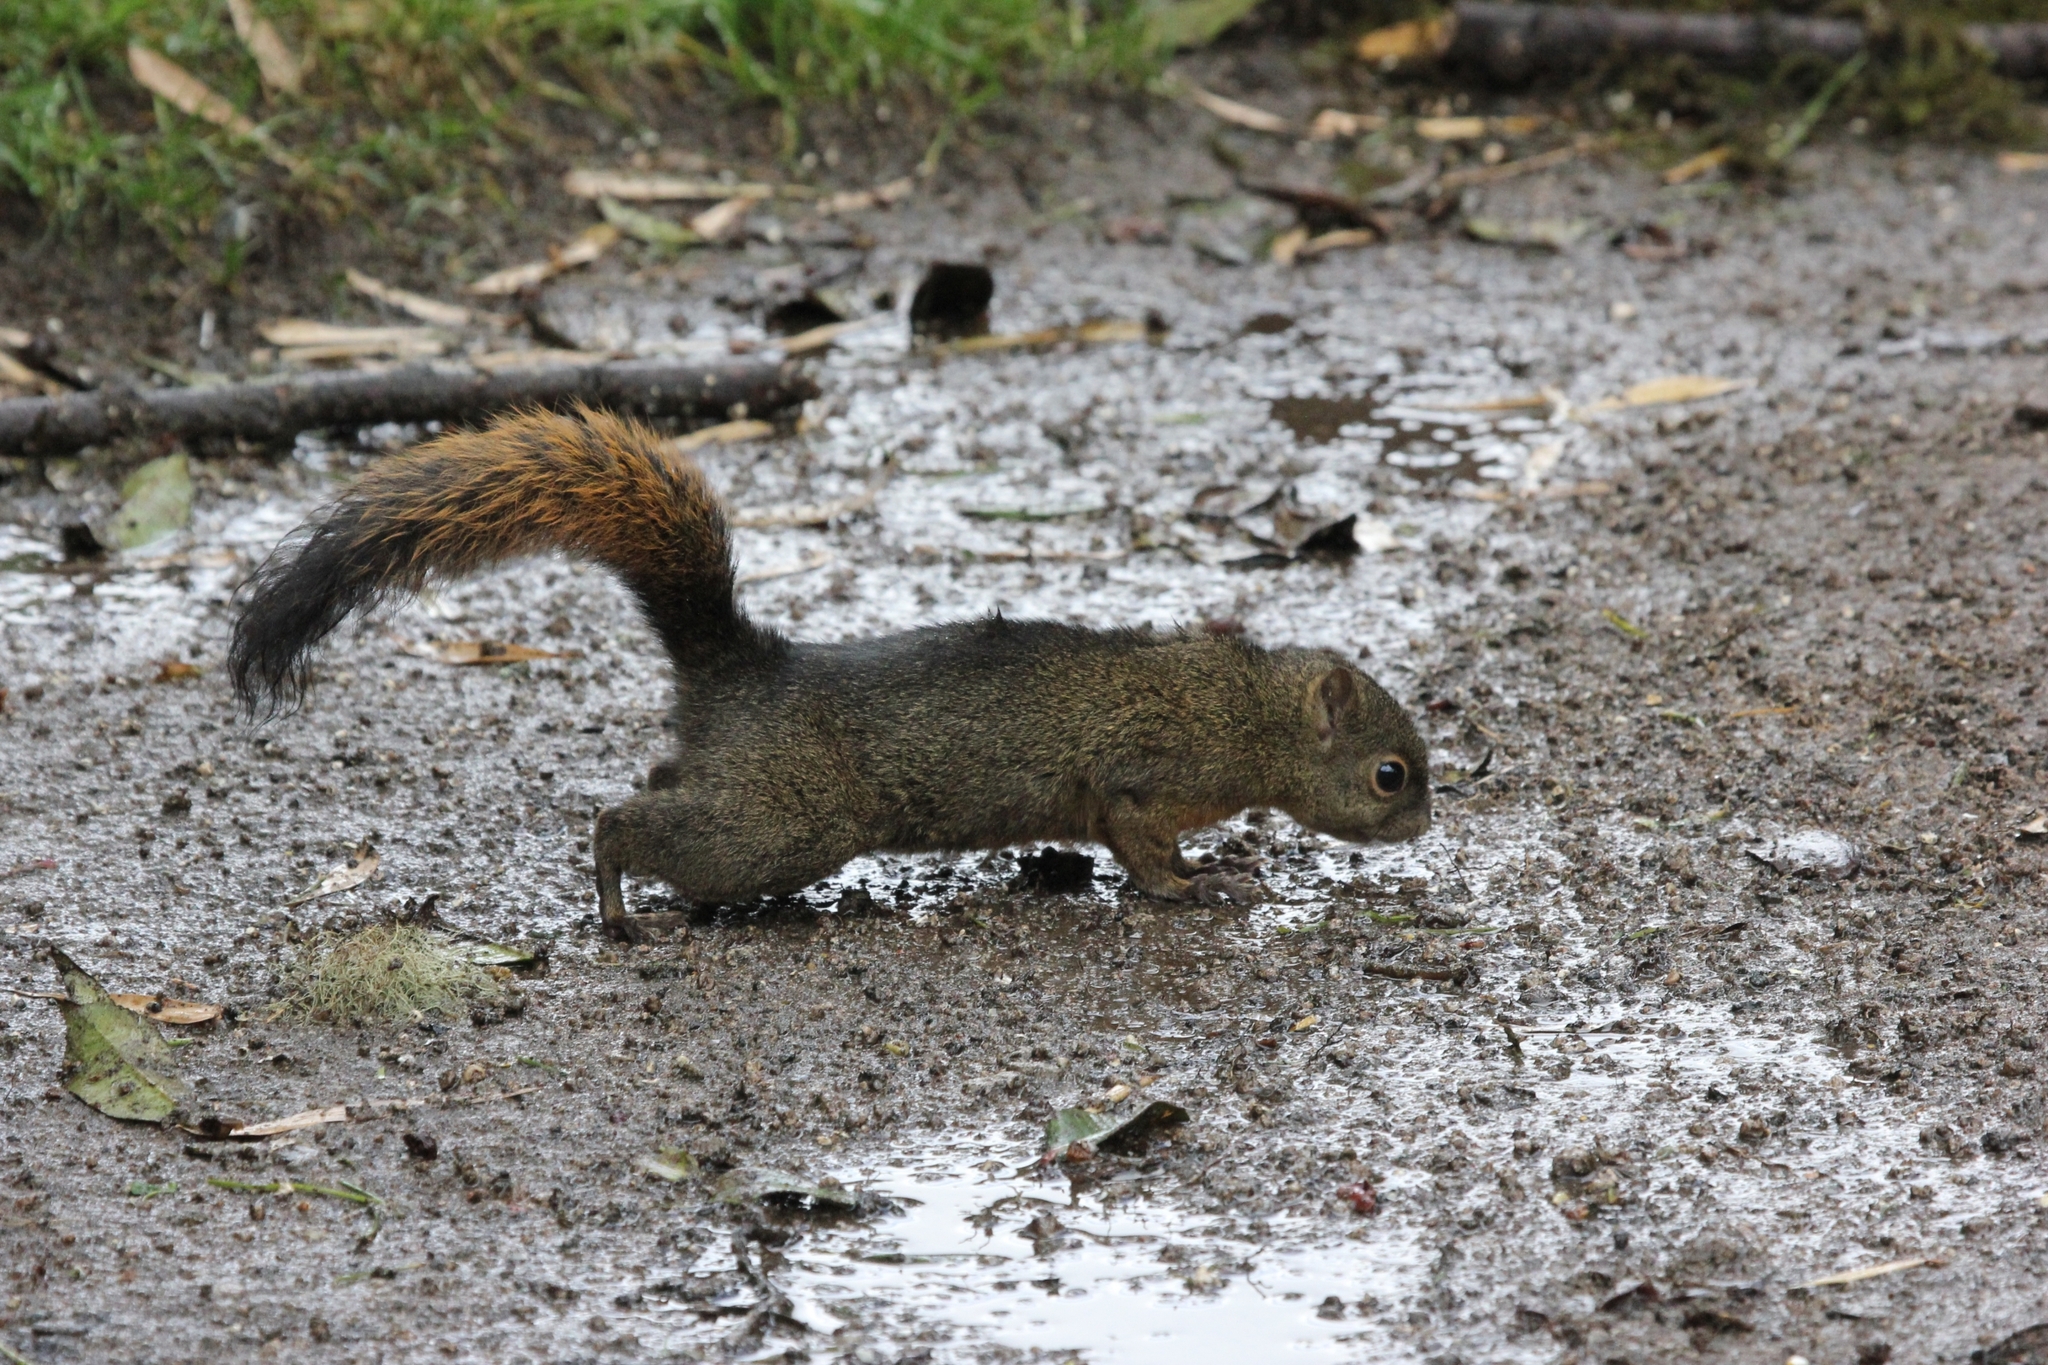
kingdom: Animalia
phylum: Chordata
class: Mammalia
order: Rodentia
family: Sciuridae
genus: Sciurus
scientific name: Sciurus granatensis
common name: Red-tailed squirrel
